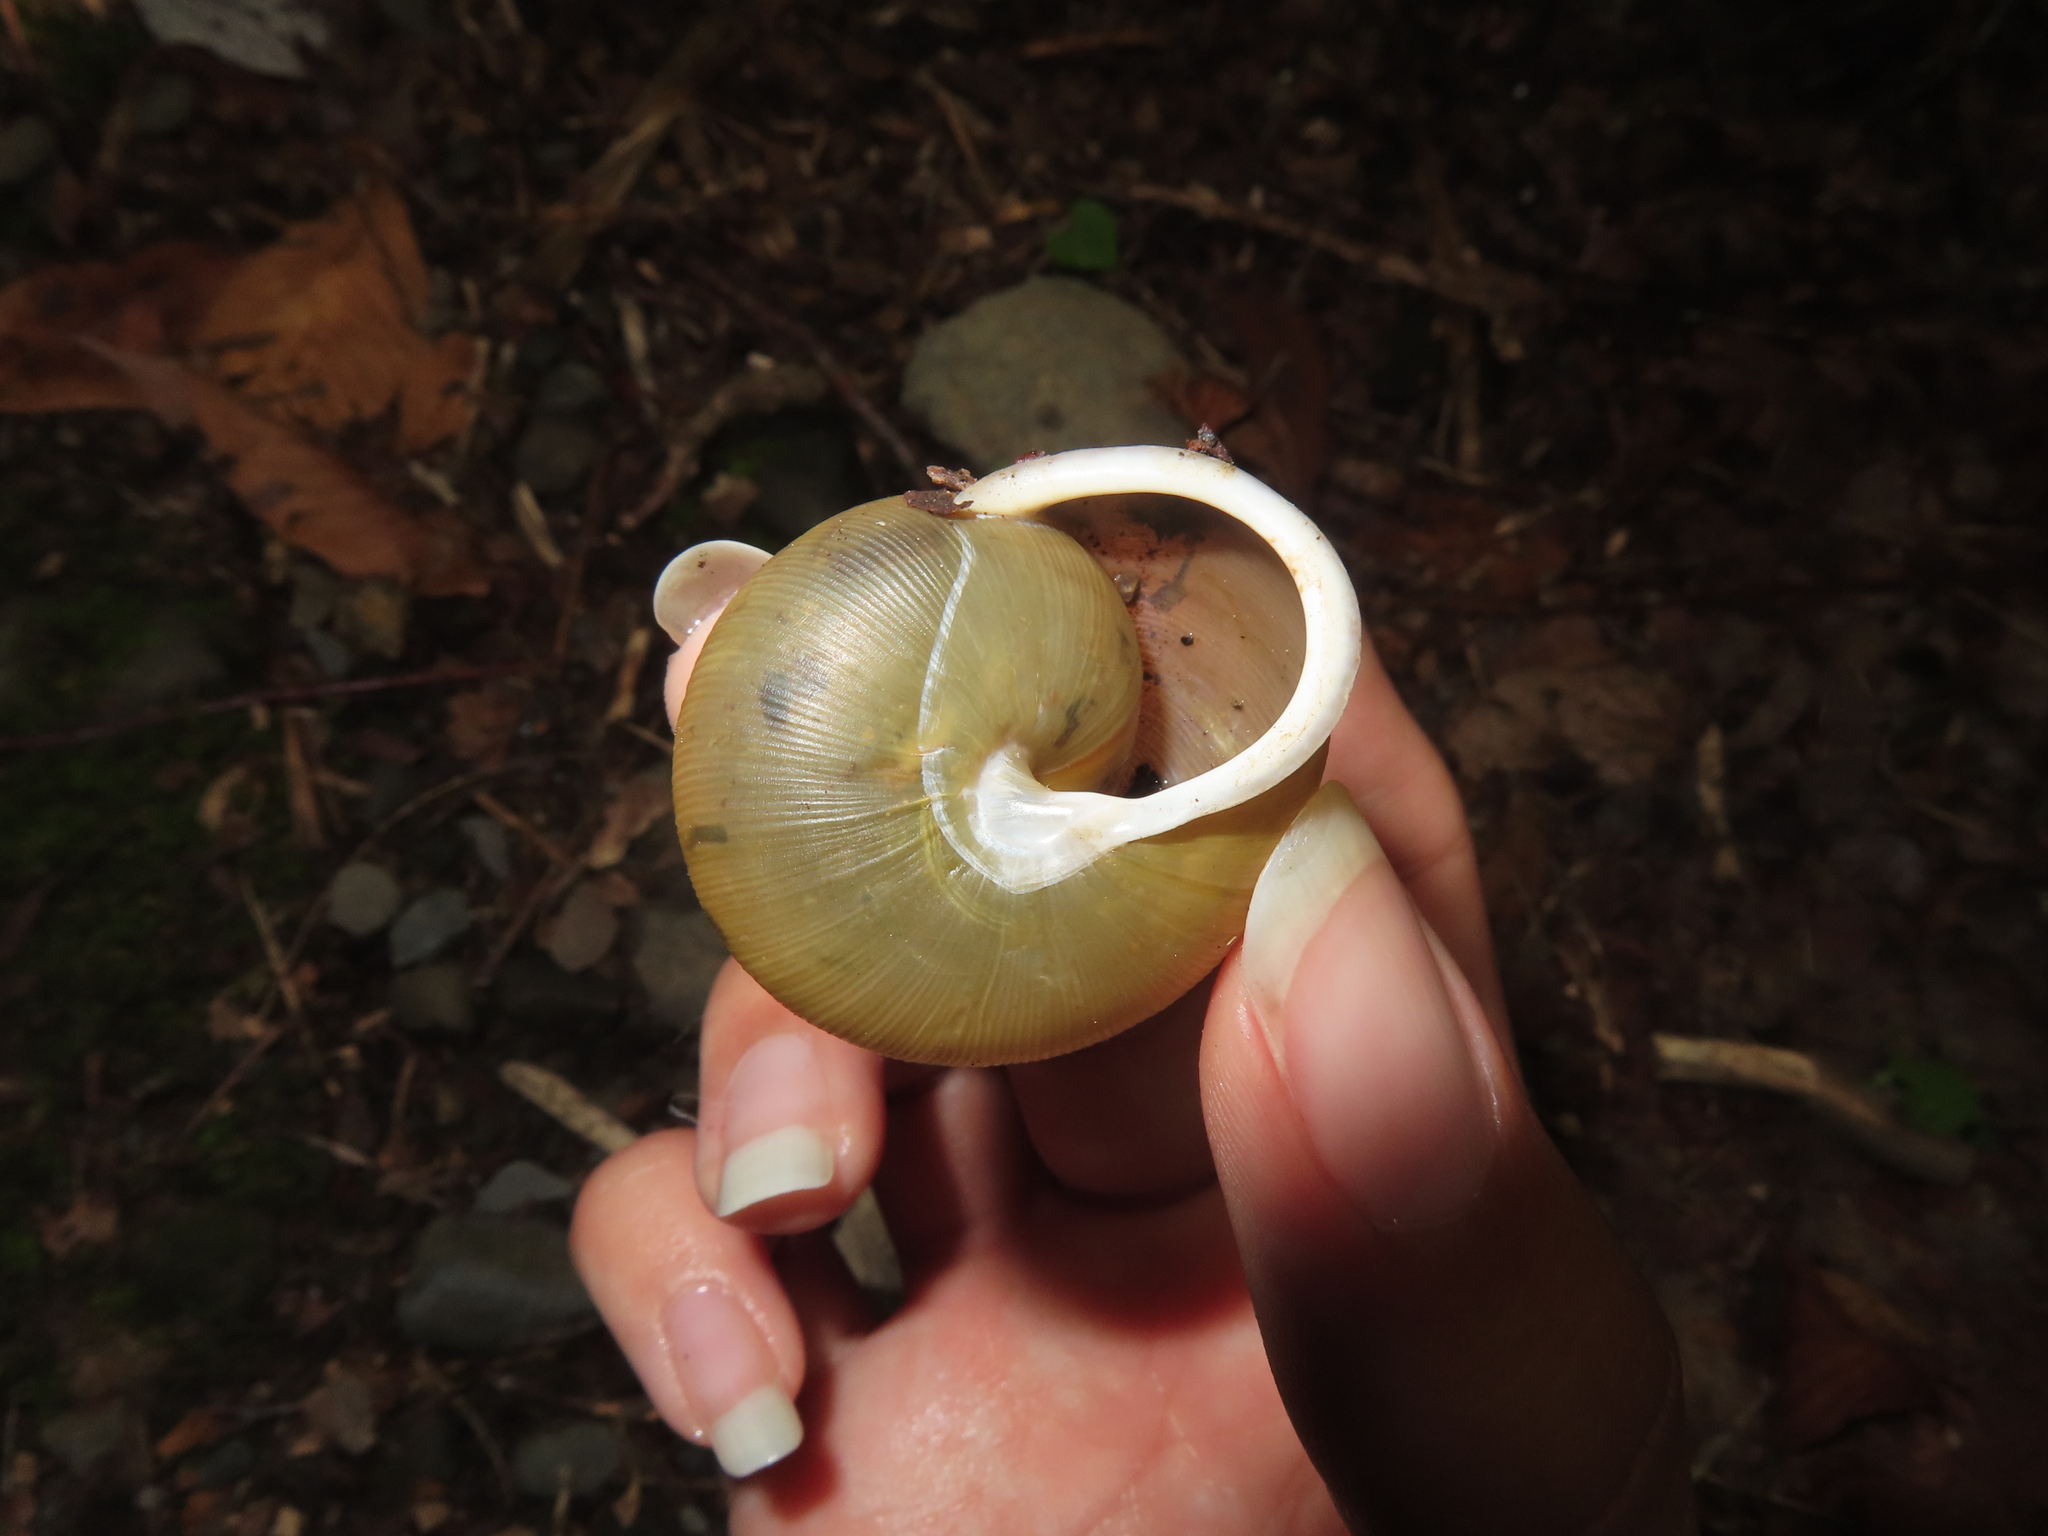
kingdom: Animalia
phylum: Mollusca
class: Gastropoda
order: Stylommatophora
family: Polygyridae
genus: Neohelix
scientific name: Neohelix albolabris
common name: Eastern whitelip
